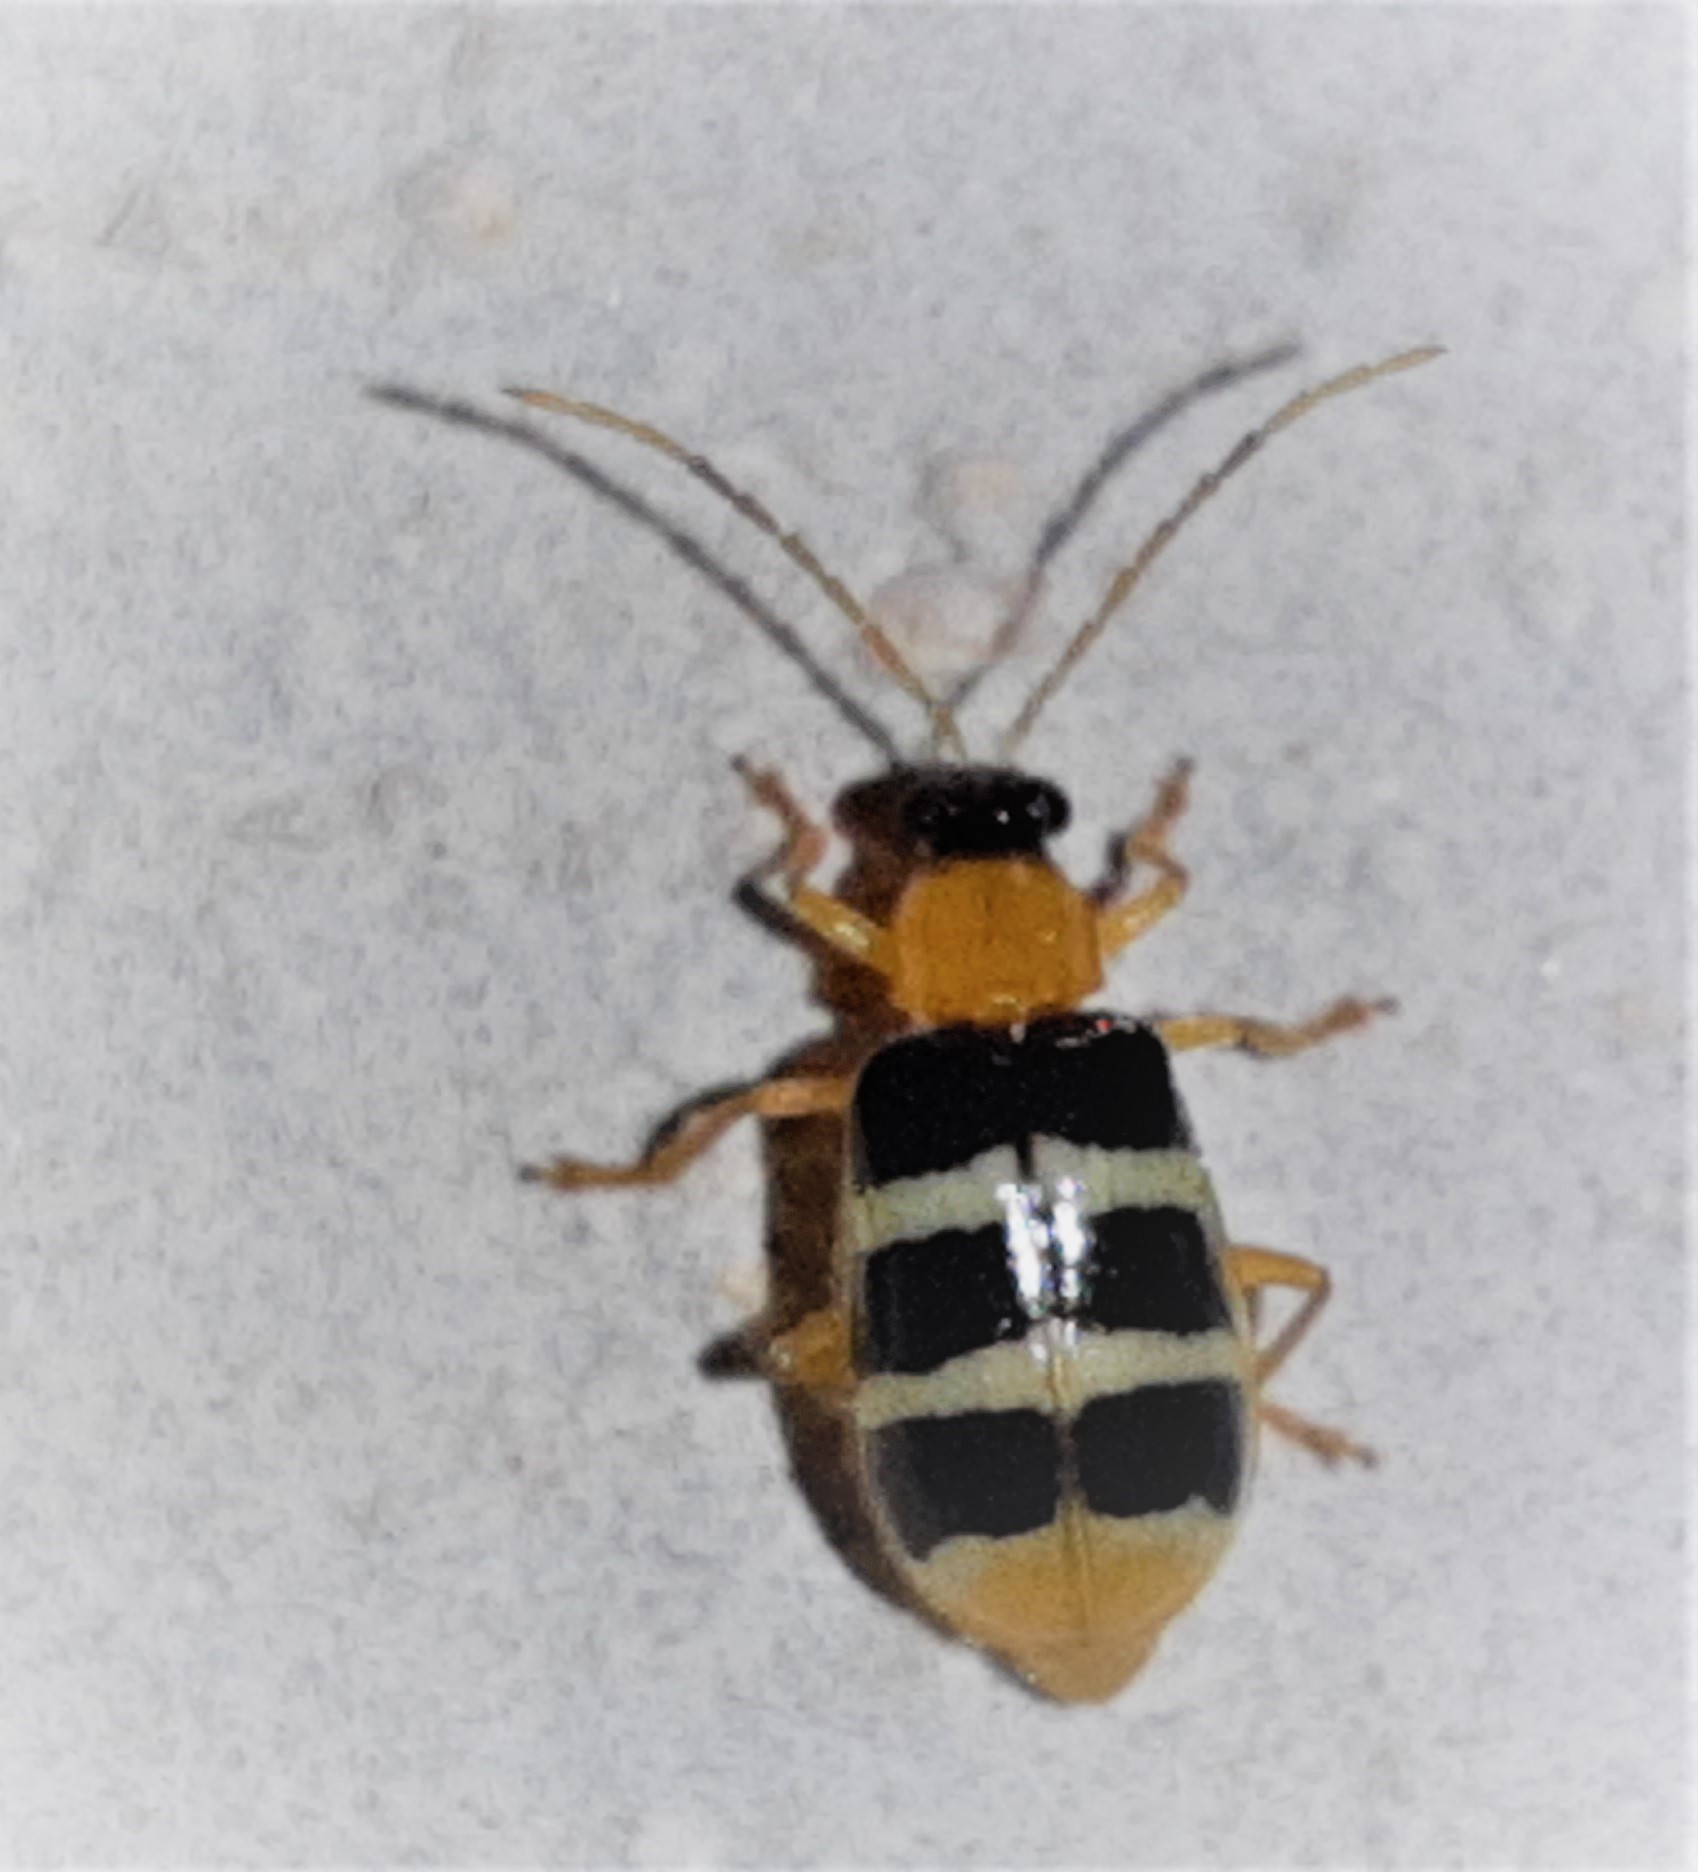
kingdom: Animalia
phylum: Arthropoda
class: Insecta
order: Coleoptera
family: Chrysomelidae
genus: Diabrotica
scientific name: Diabrotica
